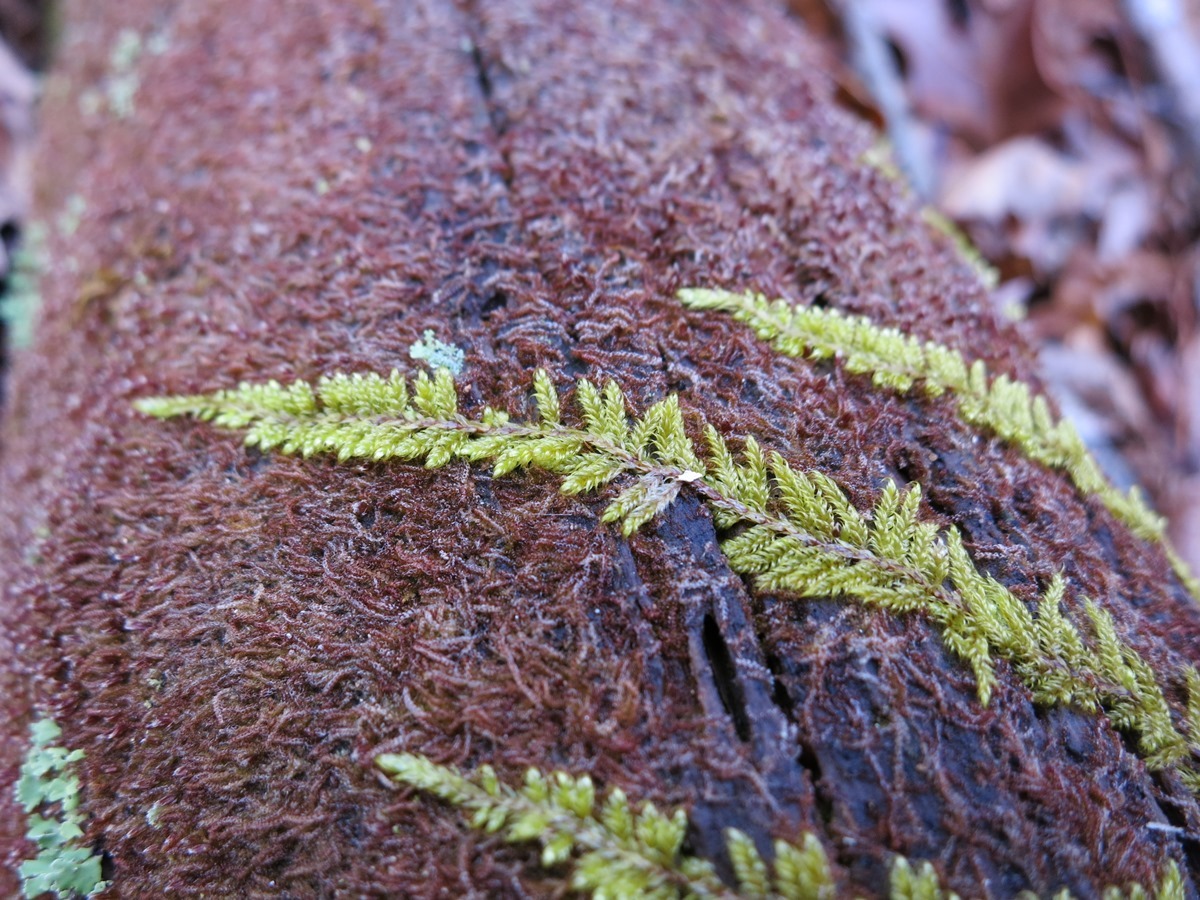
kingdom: Plantae
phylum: Bryophyta
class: Bryopsida
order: Hypnales
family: Thuidiaceae
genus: Thuidium
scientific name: Thuidium delicatulum
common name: Delicate fern moss
